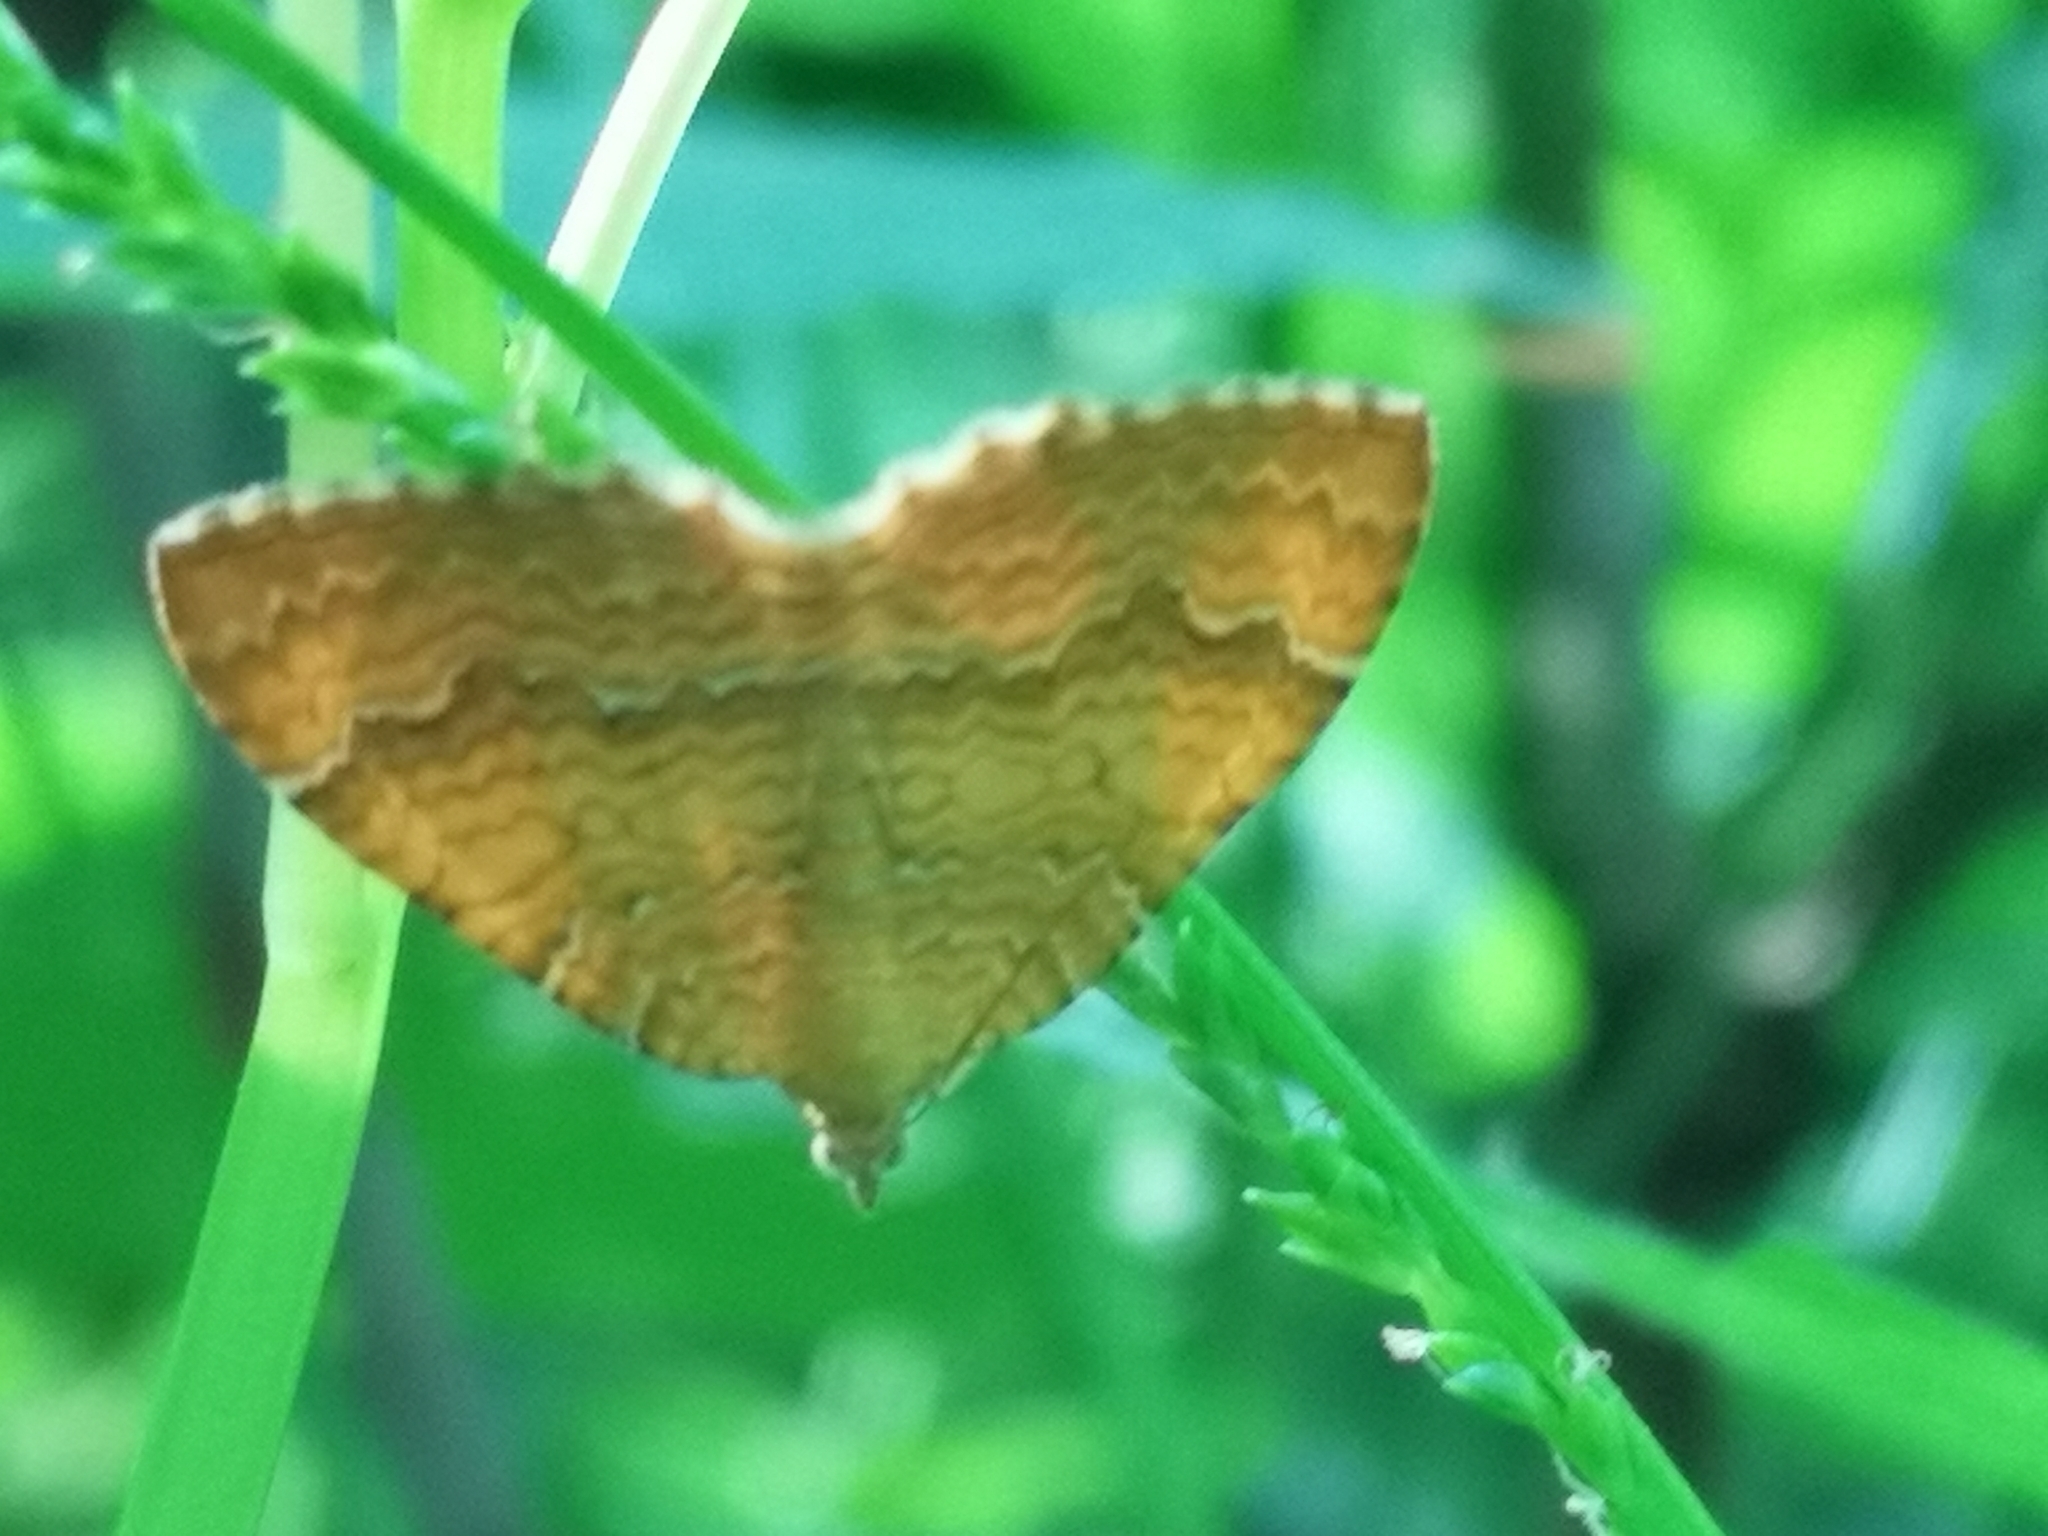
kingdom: Animalia
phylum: Arthropoda
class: Insecta
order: Lepidoptera
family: Geometridae
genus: Camptogramma
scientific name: Camptogramma bilineata
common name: Yellow shell
